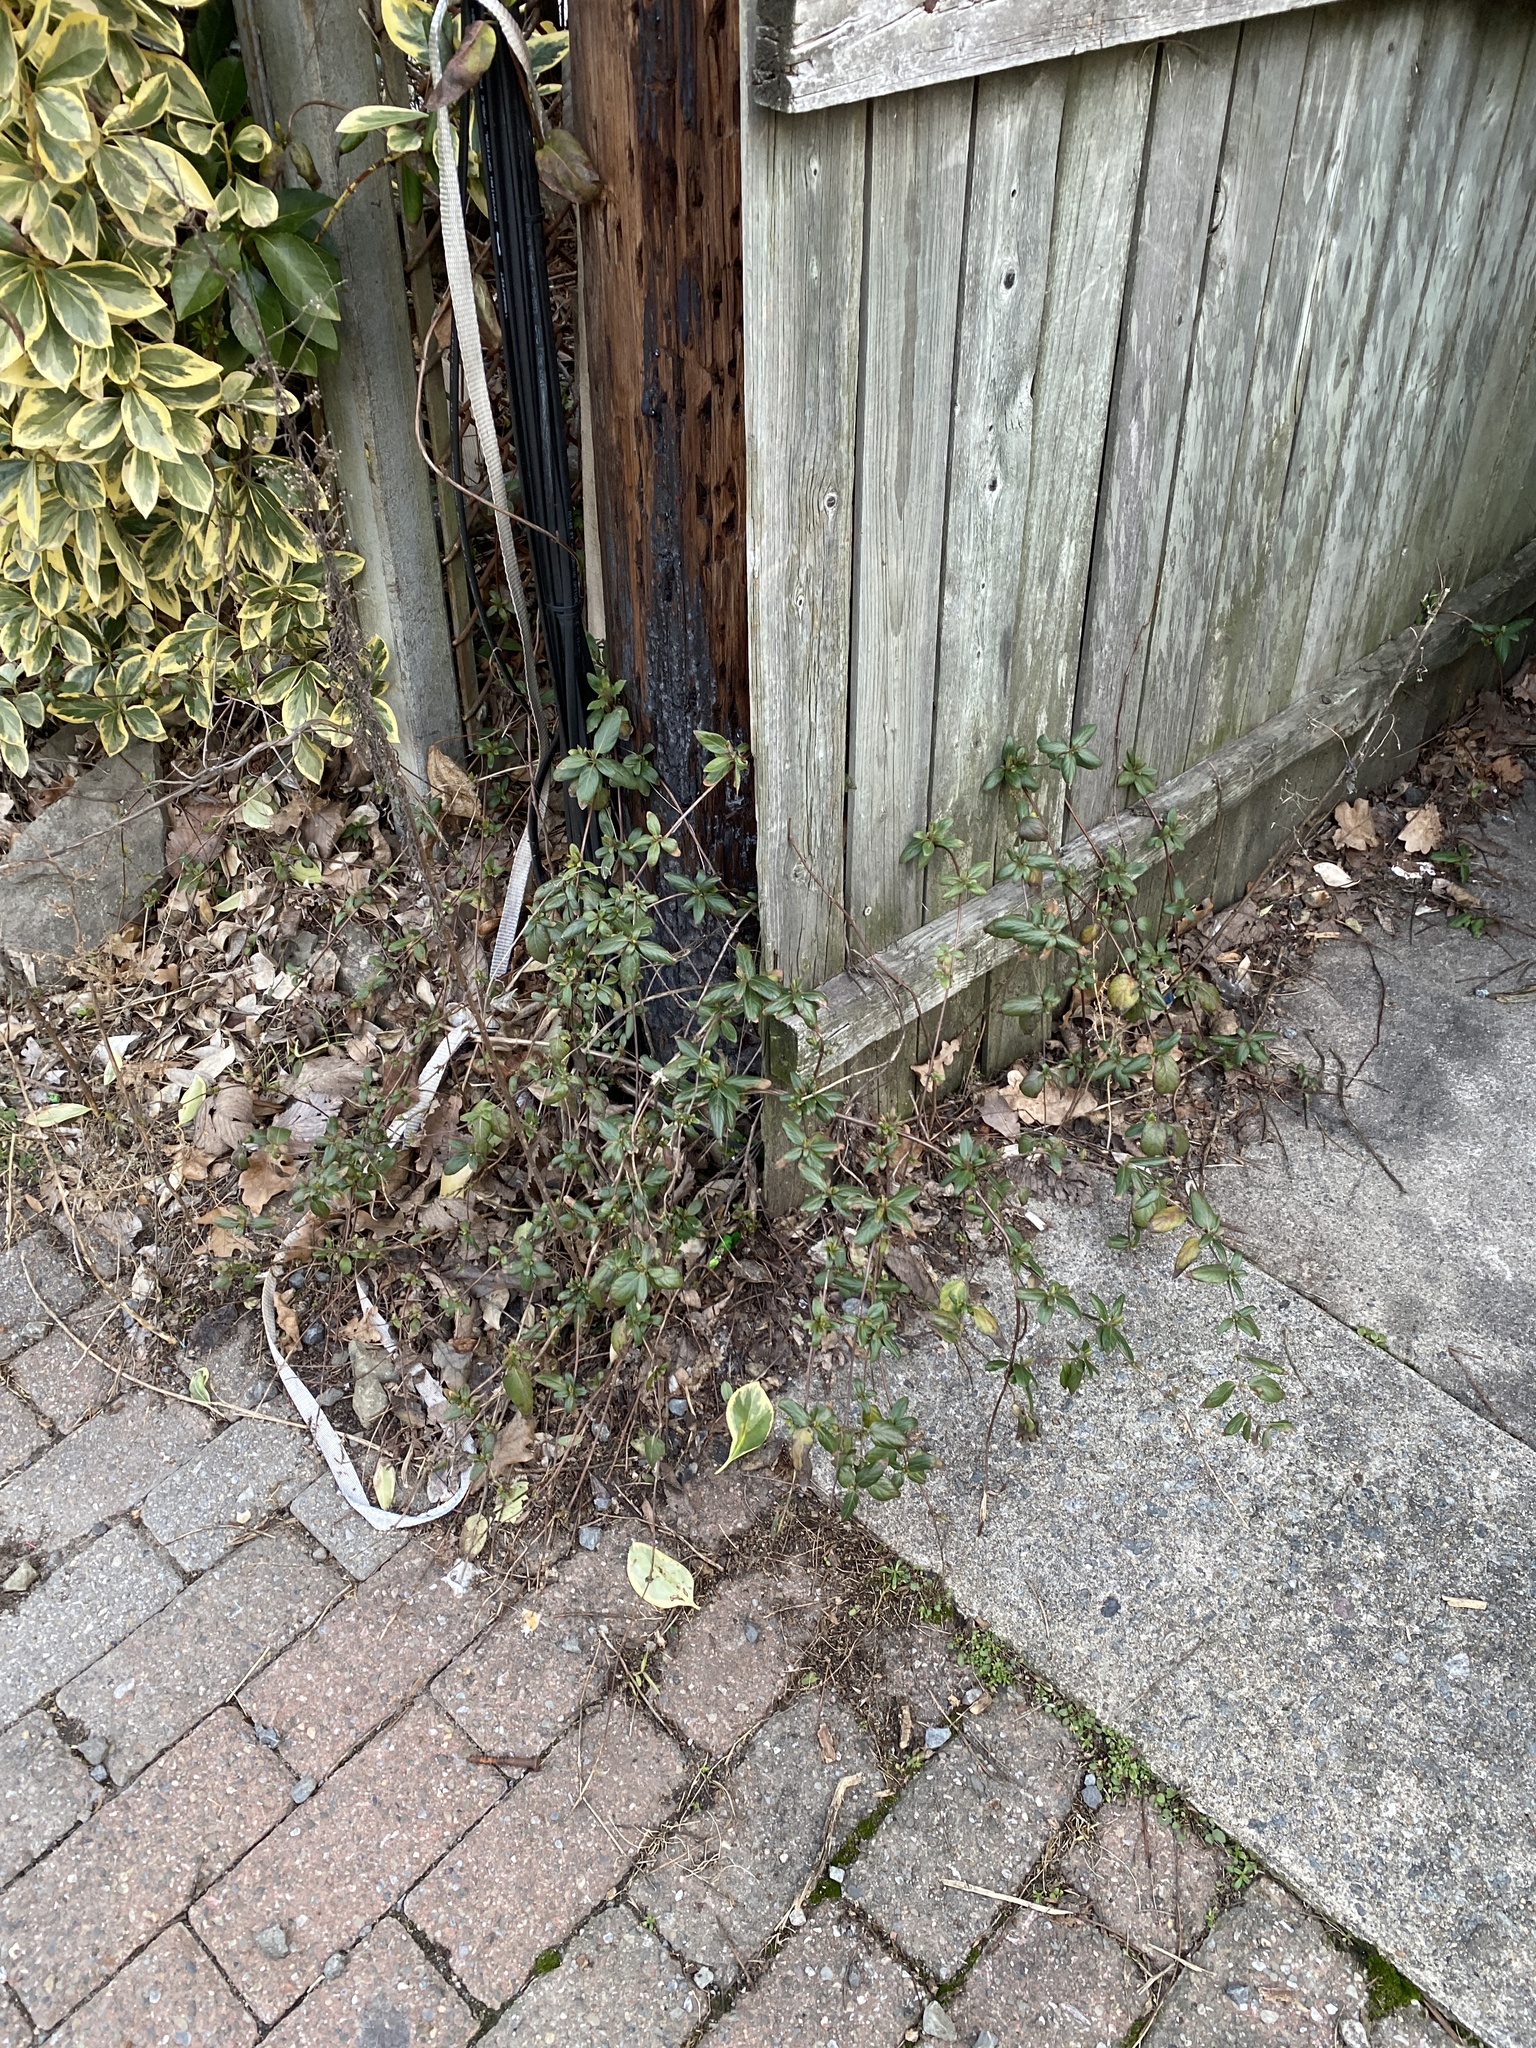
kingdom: Plantae
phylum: Tracheophyta
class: Magnoliopsida
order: Dipsacales
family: Caprifoliaceae
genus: Lonicera
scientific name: Lonicera japonica
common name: Japanese honeysuckle
